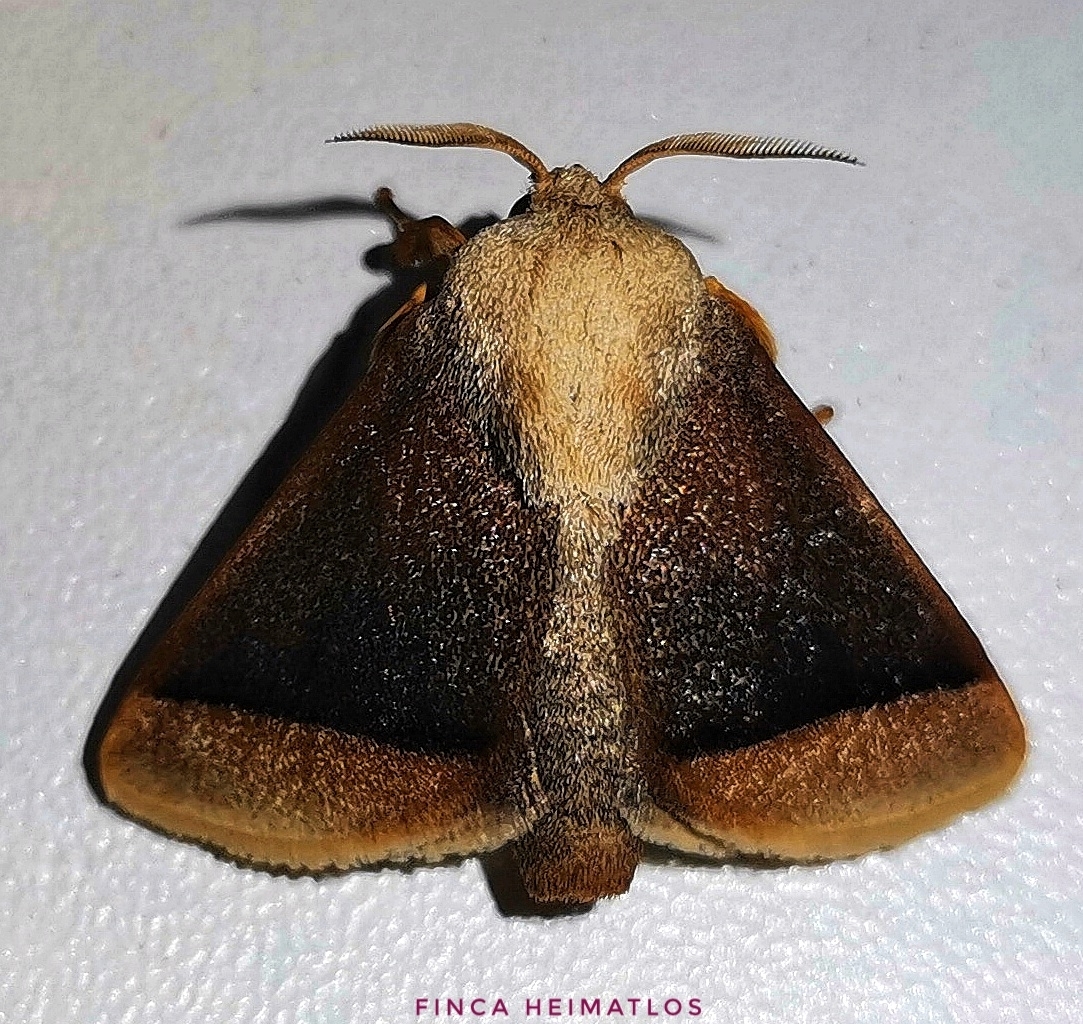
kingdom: Animalia
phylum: Arthropoda
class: Insecta
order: Lepidoptera
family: Limacodidae
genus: Natada
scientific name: Natada simois
